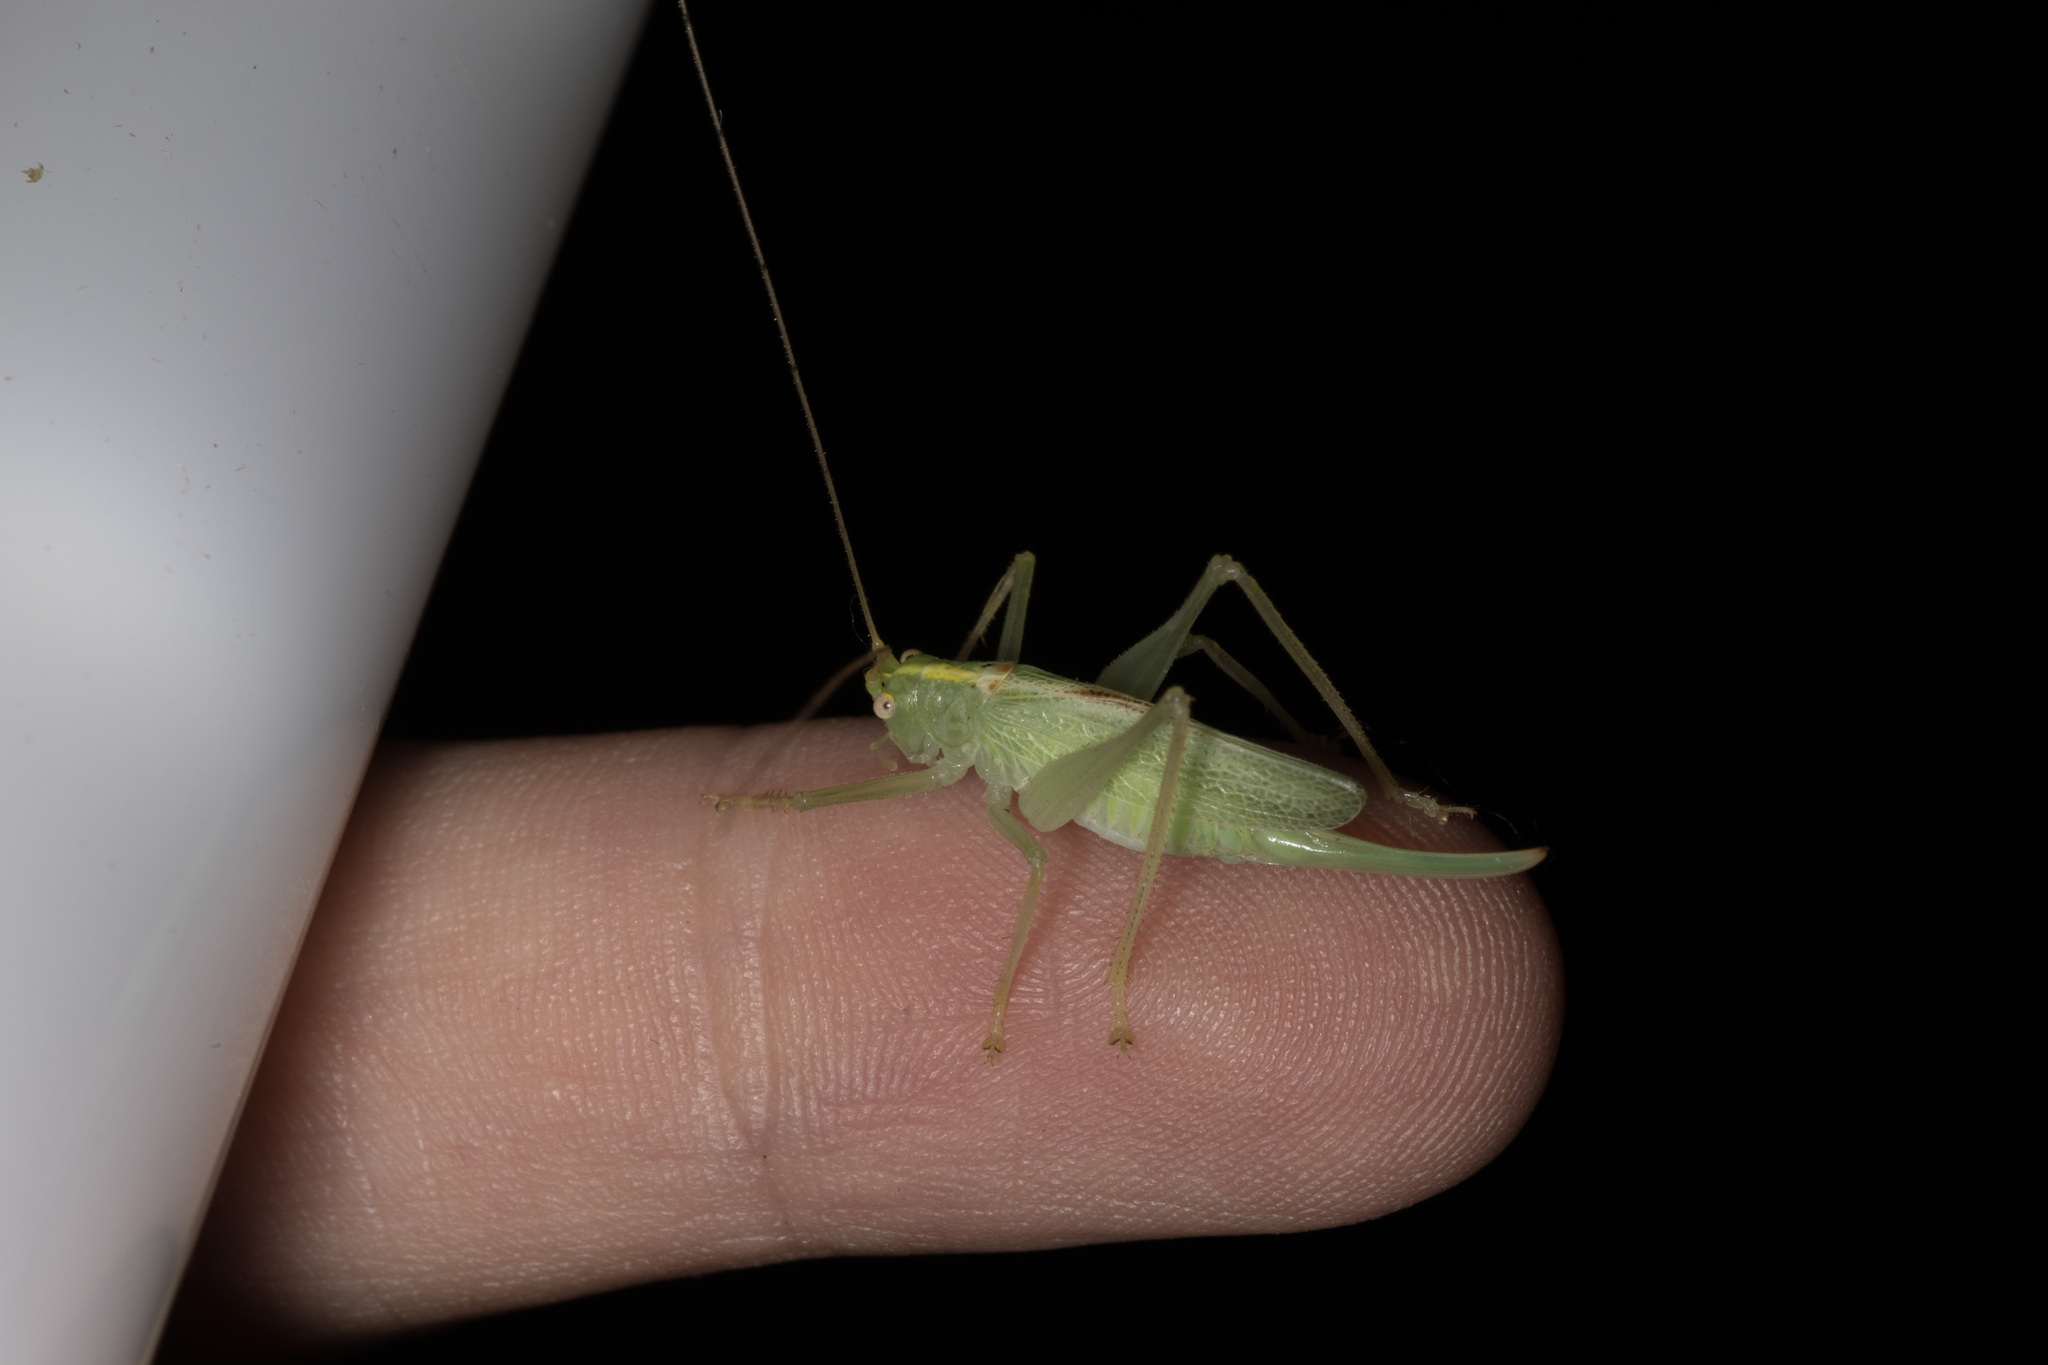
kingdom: Animalia
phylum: Arthropoda
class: Insecta
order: Orthoptera
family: Tettigoniidae
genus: Meconema
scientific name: Meconema thalassinum
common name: Oak bush-cricket
